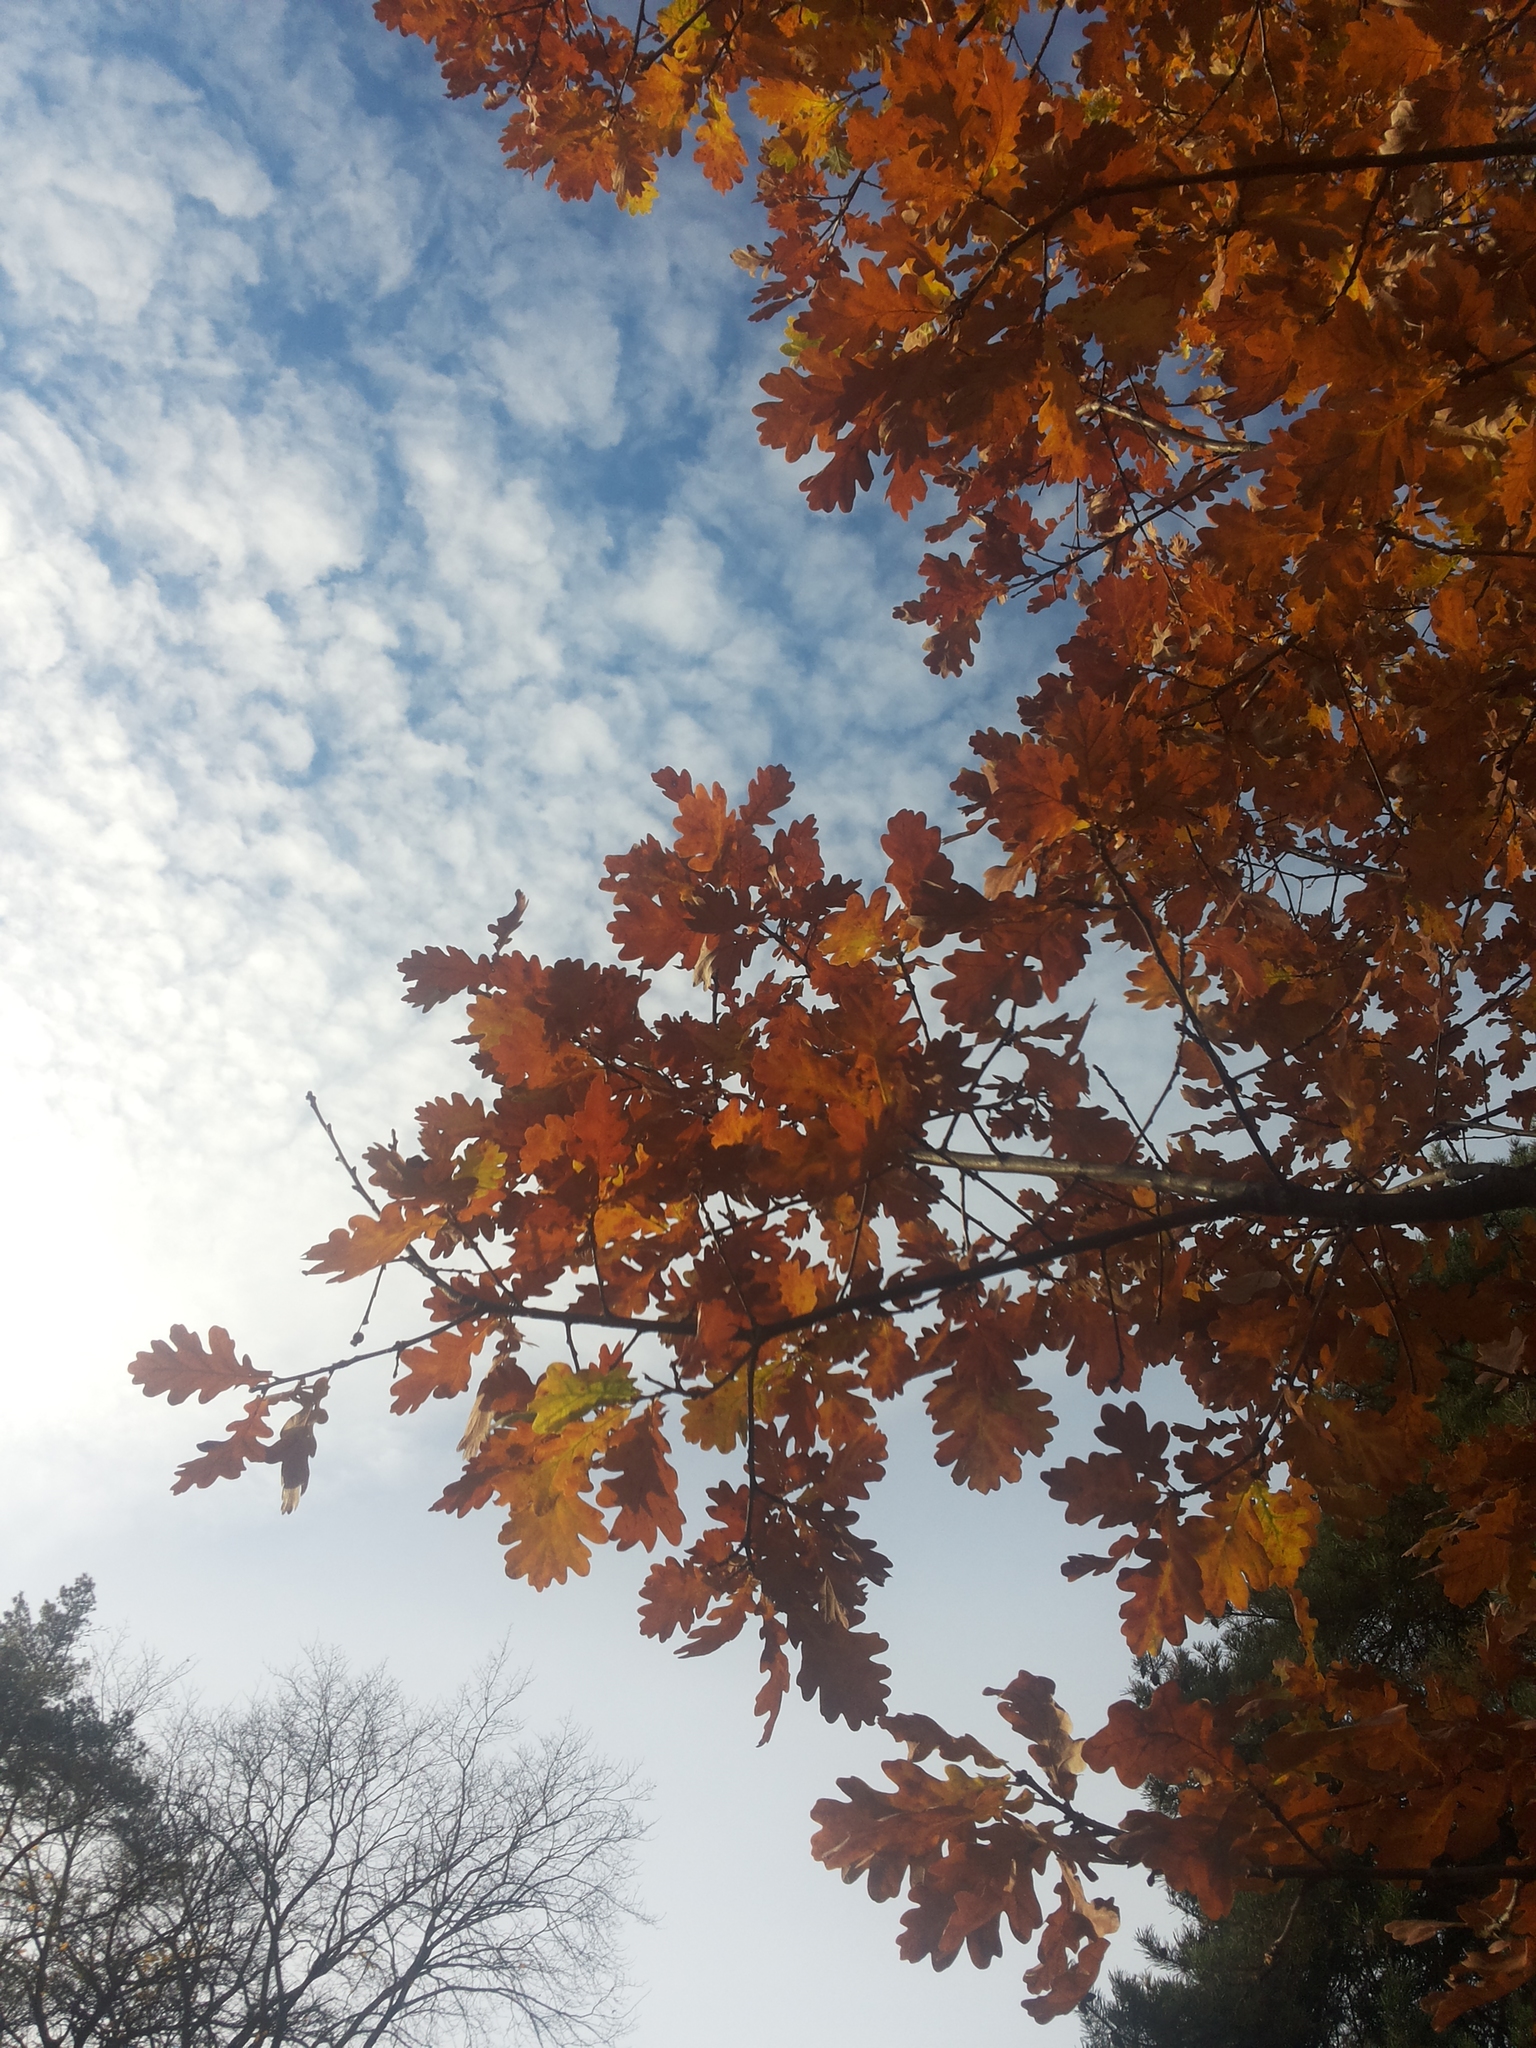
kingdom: Plantae
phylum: Tracheophyta
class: Magnoliopsida
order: Fagales
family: Fagaceae
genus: Quercus
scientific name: Quercus robur
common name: Pedunculate oak
